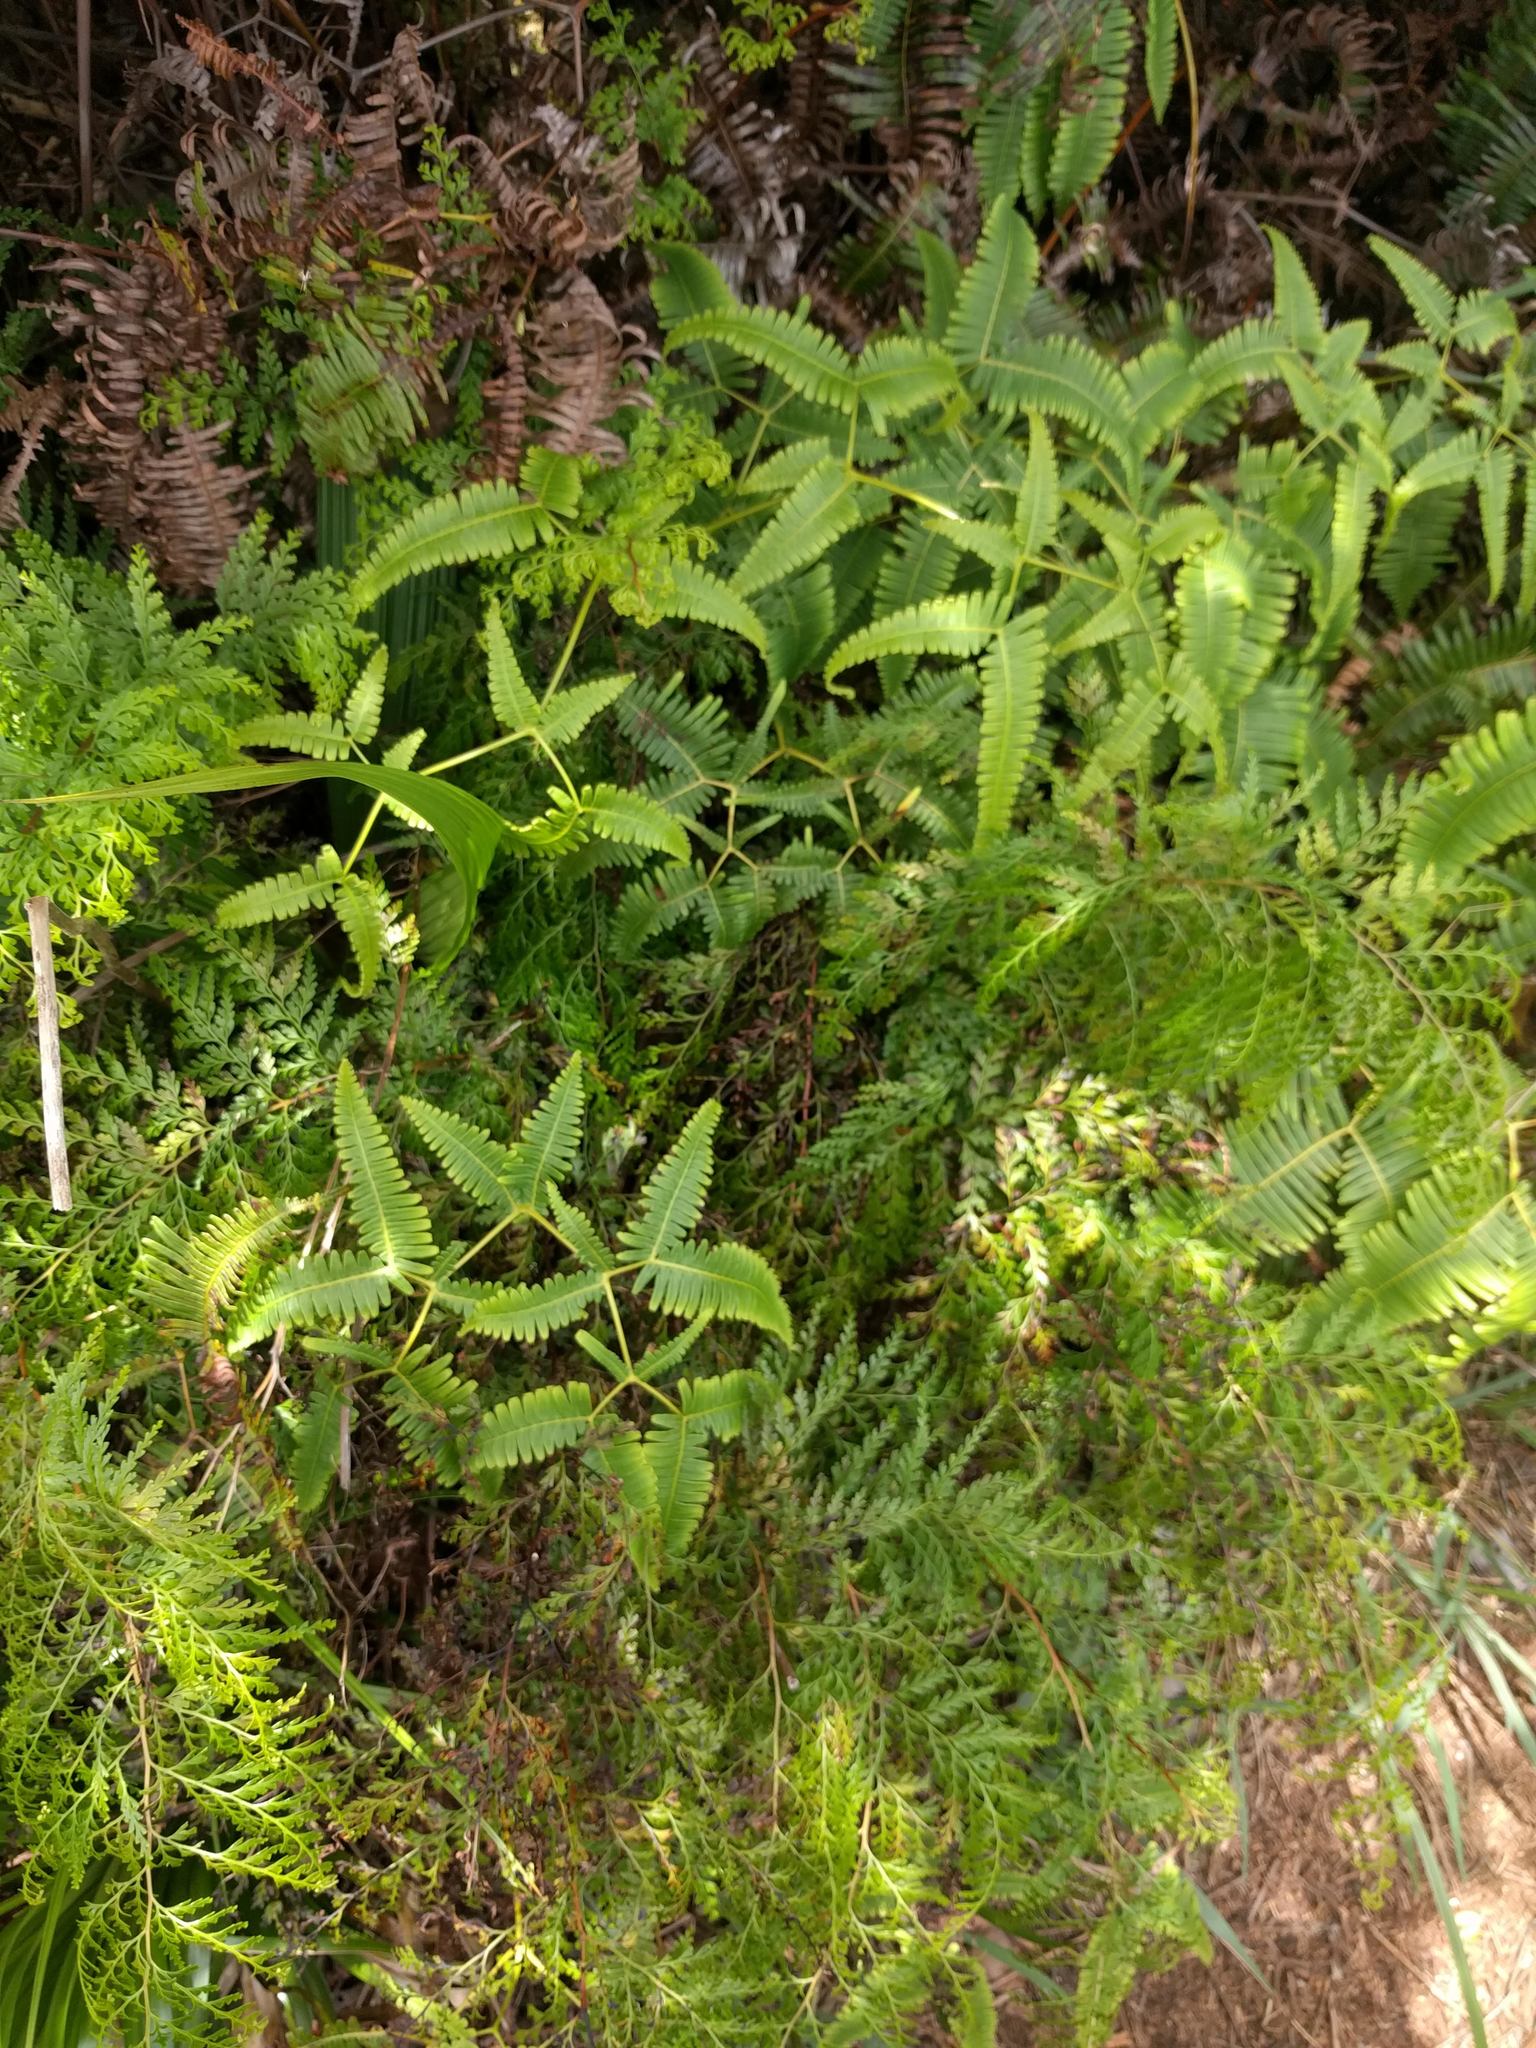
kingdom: Plantae
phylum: Tracheophyta
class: Polypodiopsida
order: Gleicheniales
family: Gleicheniaceae
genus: Dicranopteris
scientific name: Dicranopteris linearis
